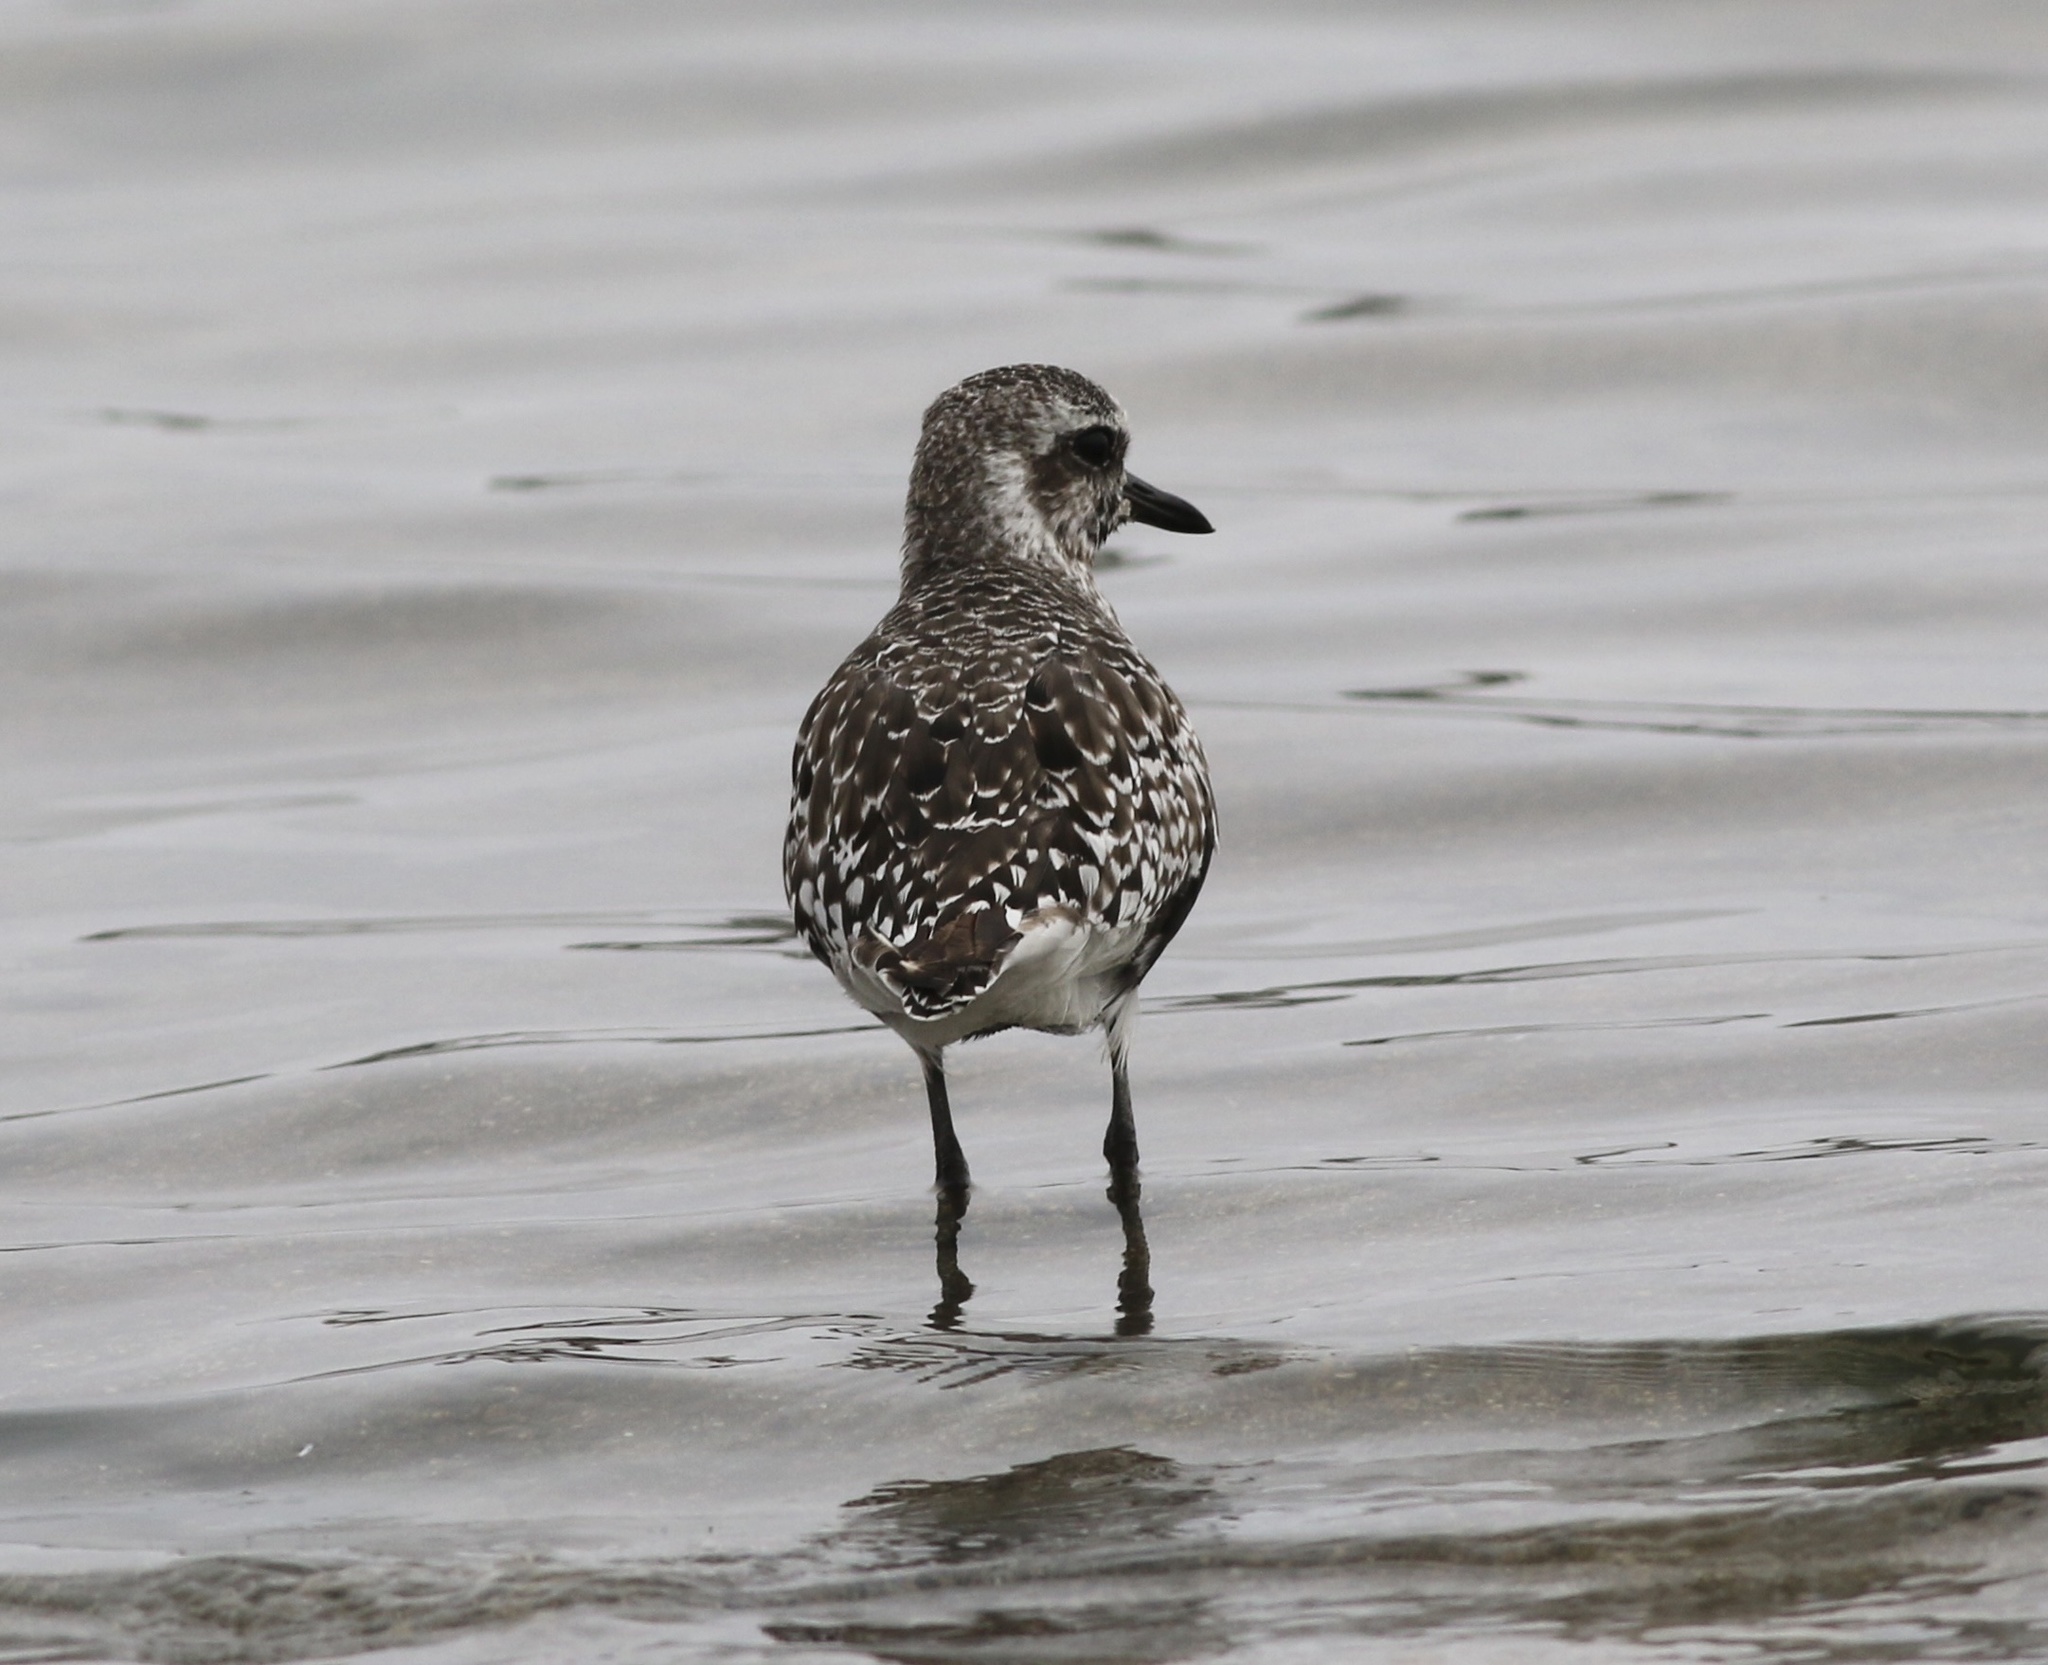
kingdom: Animalia
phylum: Chordata
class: Aves
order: Charadriiformes
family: Charadriidae
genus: Pluvialis
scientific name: Pluvialis squatarola
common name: Grey plover
